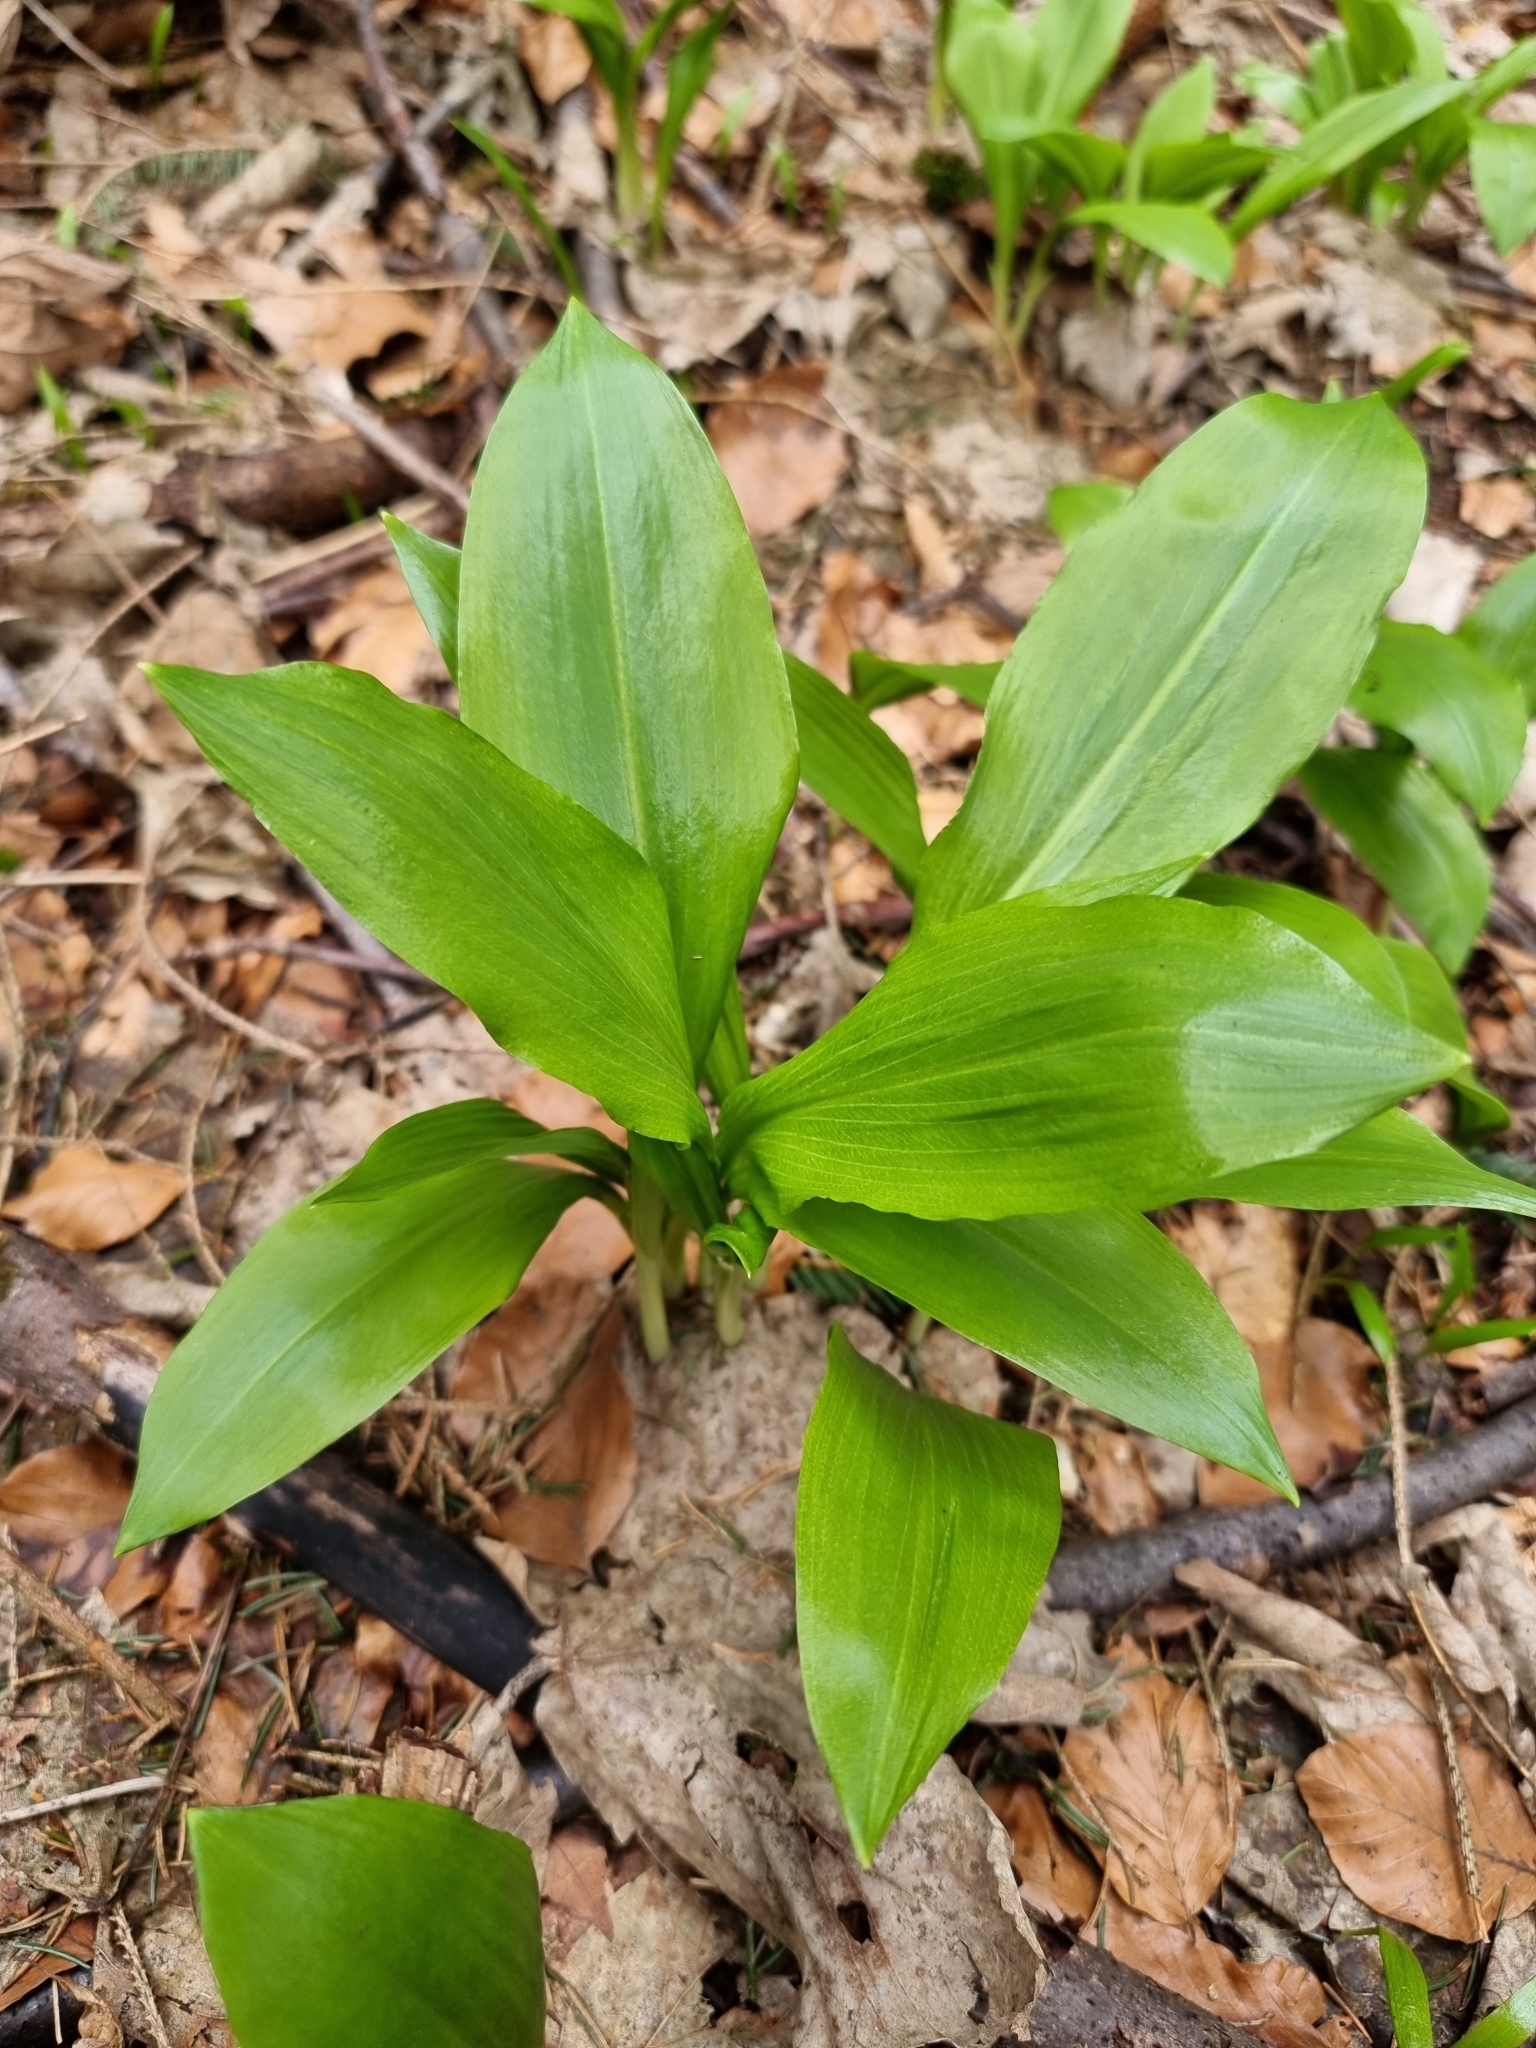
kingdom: Plantae
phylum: Tracheophyta
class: Liliopsida
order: Asparagales
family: Amaryllidaceae
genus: Allium
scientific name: Allium ursinum
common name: Ramsons
